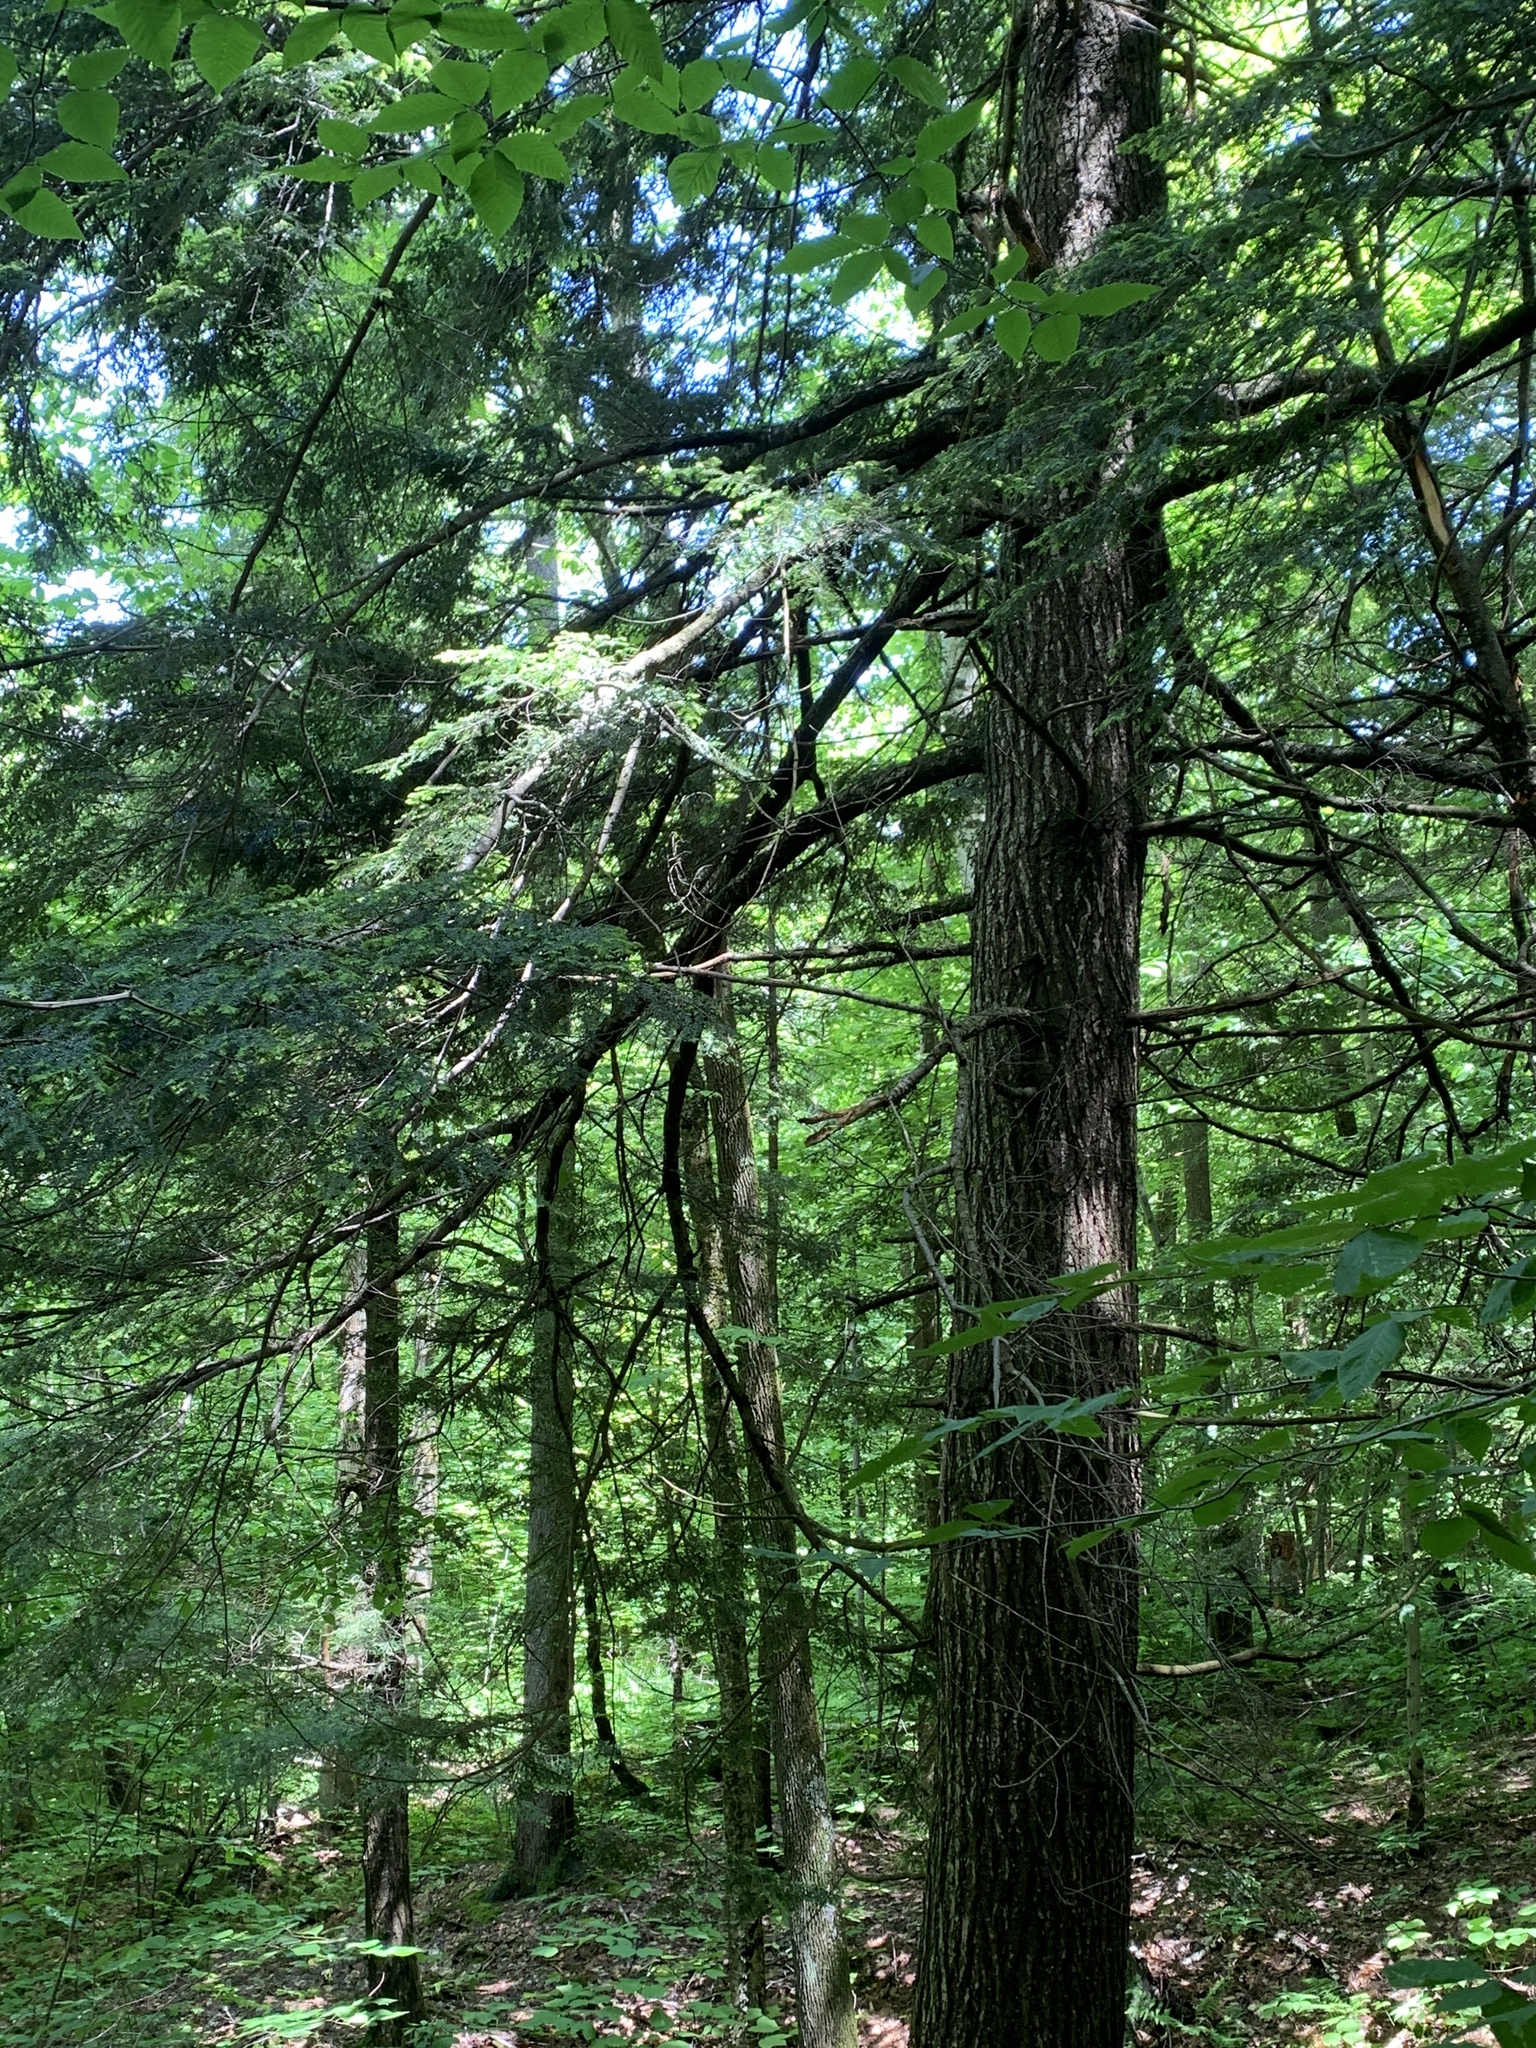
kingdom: Plantae
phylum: Tracheophyta
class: Pinopsida
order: Pinales
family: Pinaceae
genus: Tsuga
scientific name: Tsuga canadensis
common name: Eastern hemlock
